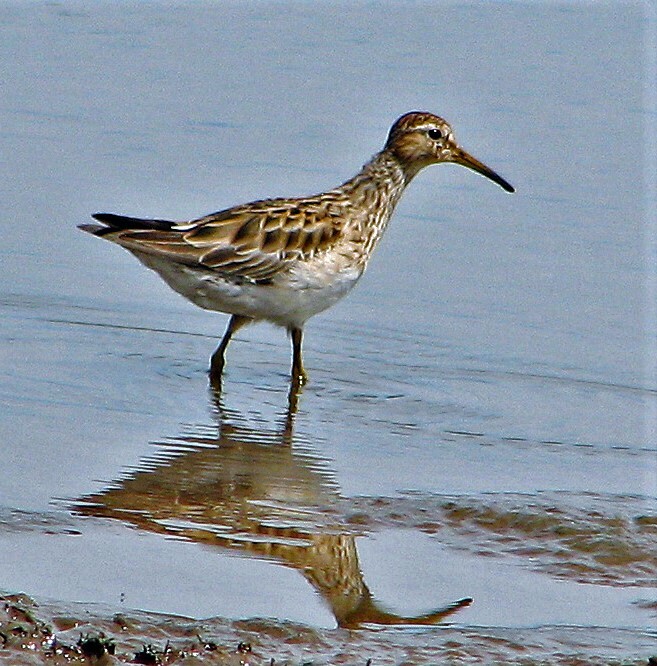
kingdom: Animalia
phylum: Chordata
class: Aves
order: Charadriiformes
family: Scolopacidae
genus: Calidris
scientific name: Calidris melanotos
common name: Pectoral sandpiper
